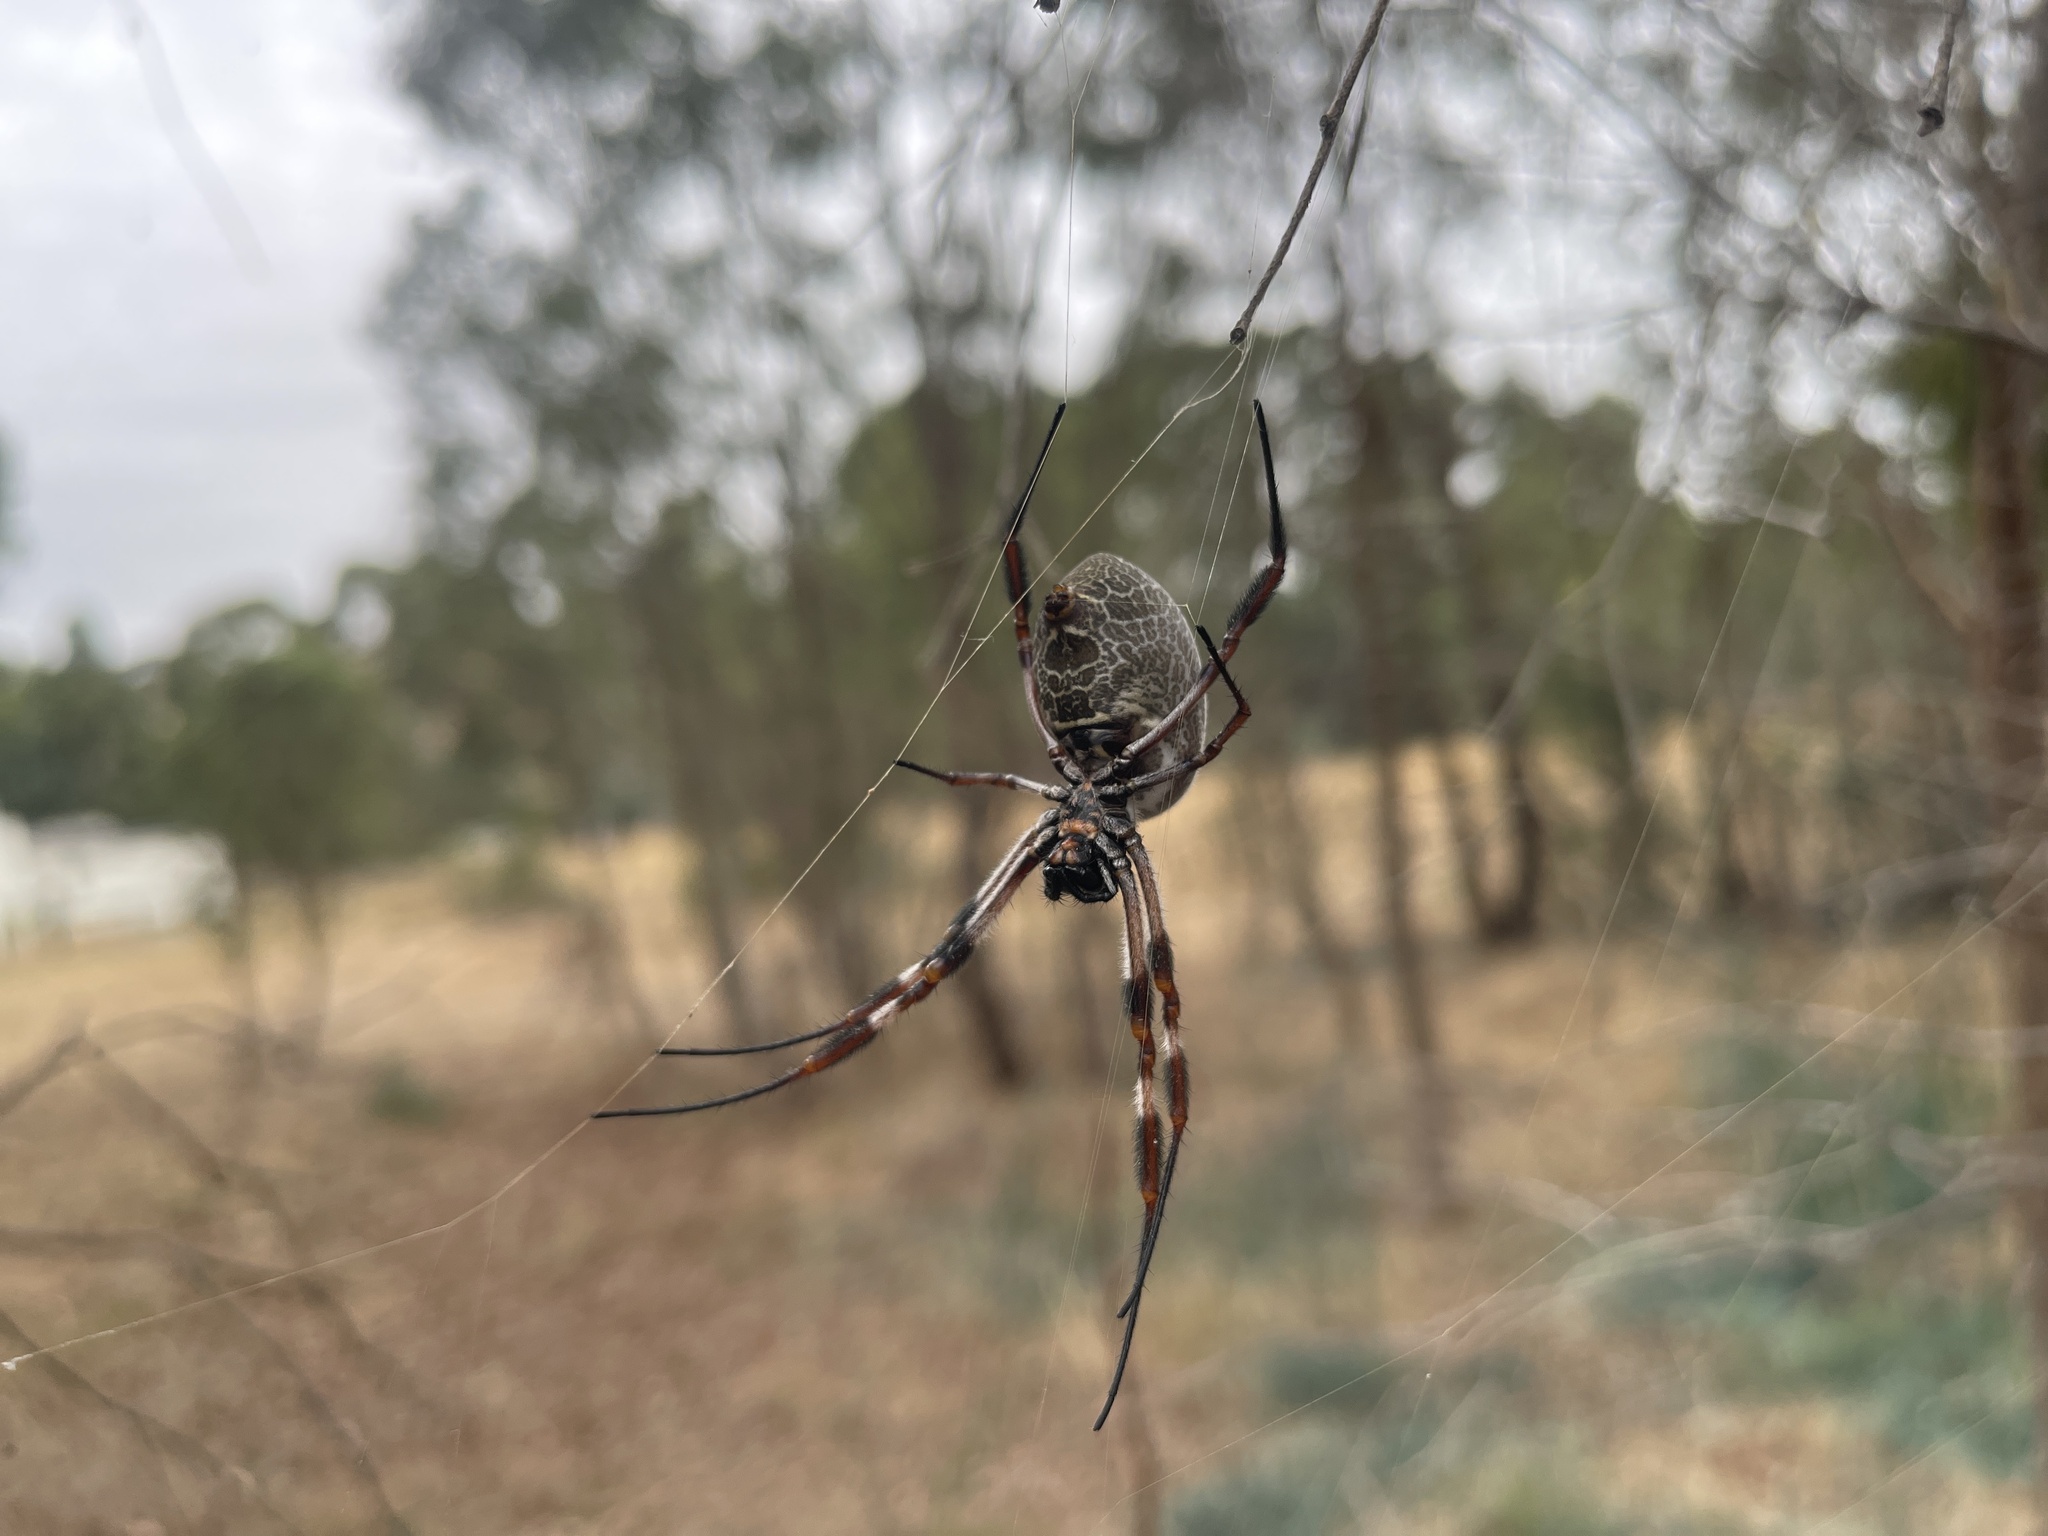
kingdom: Animalia
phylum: Arthropoda
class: Arachnida
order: Araneae
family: Araneidae
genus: Trichonephila
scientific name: Trichonephila edulis
